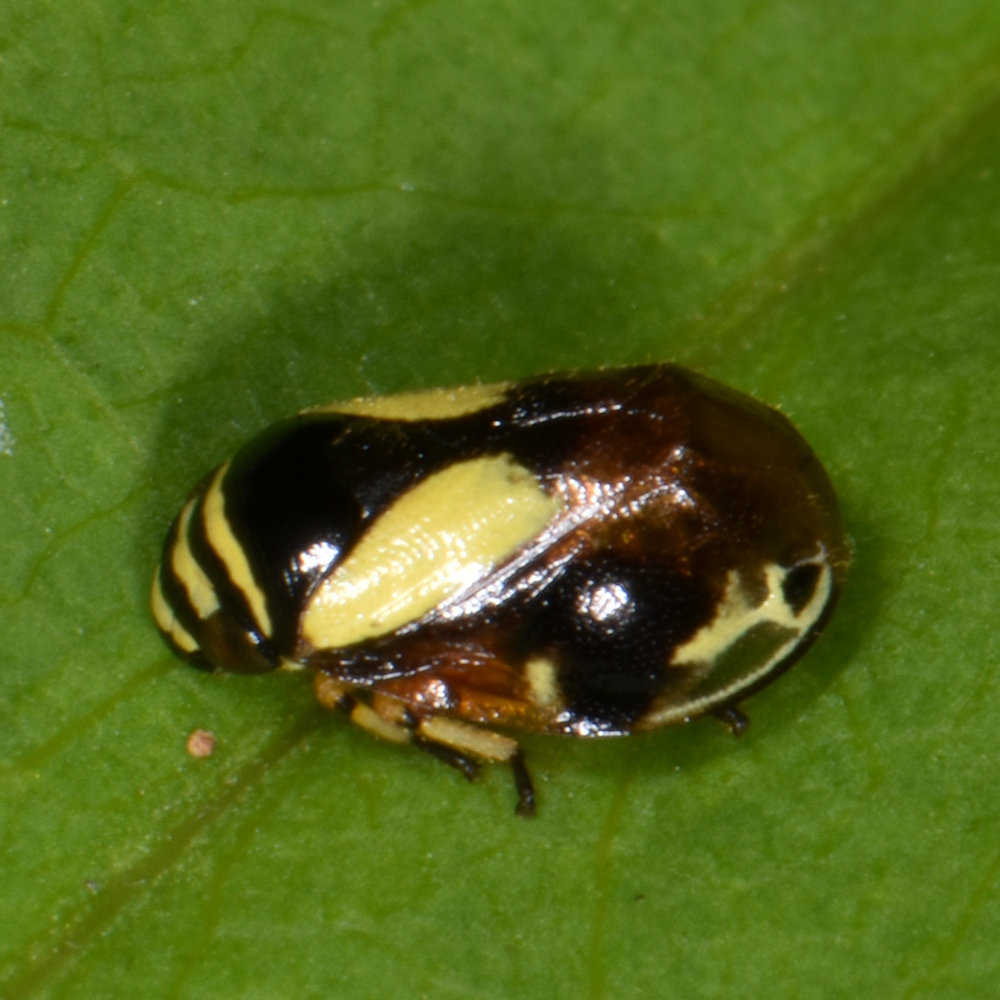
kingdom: Animalia
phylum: Arthropoda
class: Insecta
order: Hemiptera
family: Clastopteridae
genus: Clastoptera
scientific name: Clastoptera proteus
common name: Dogwood spittlebug
